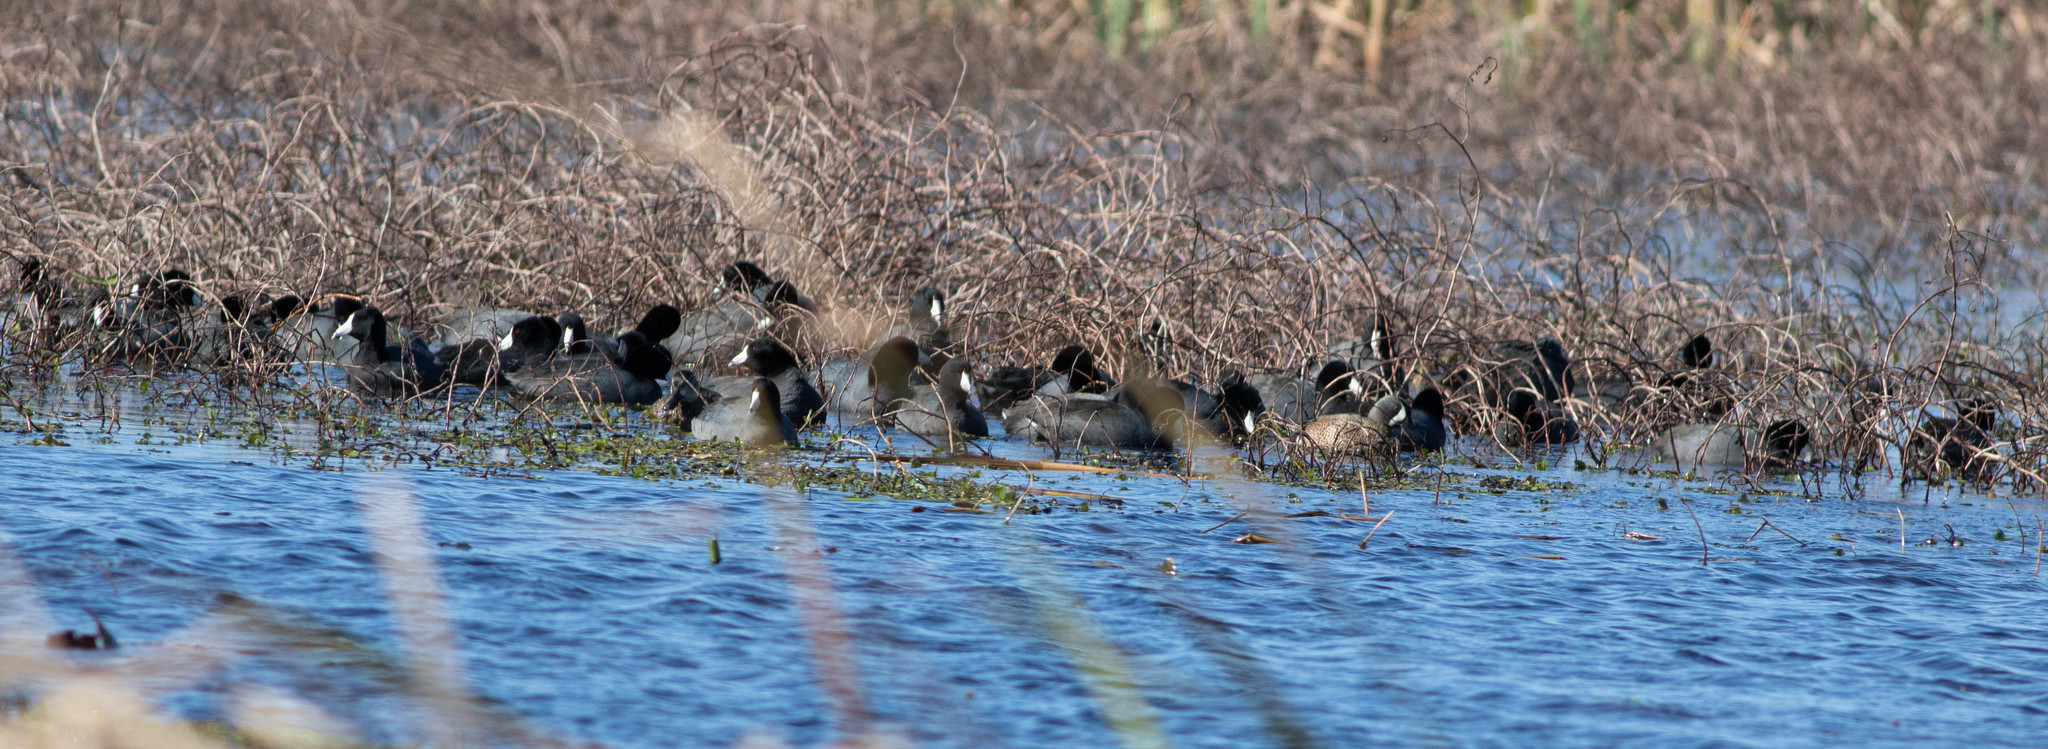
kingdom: Animalia
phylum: Chordata
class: Aves
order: Gruiformes
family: Rallidae
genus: Fulica
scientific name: Fulica americana
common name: American coot
